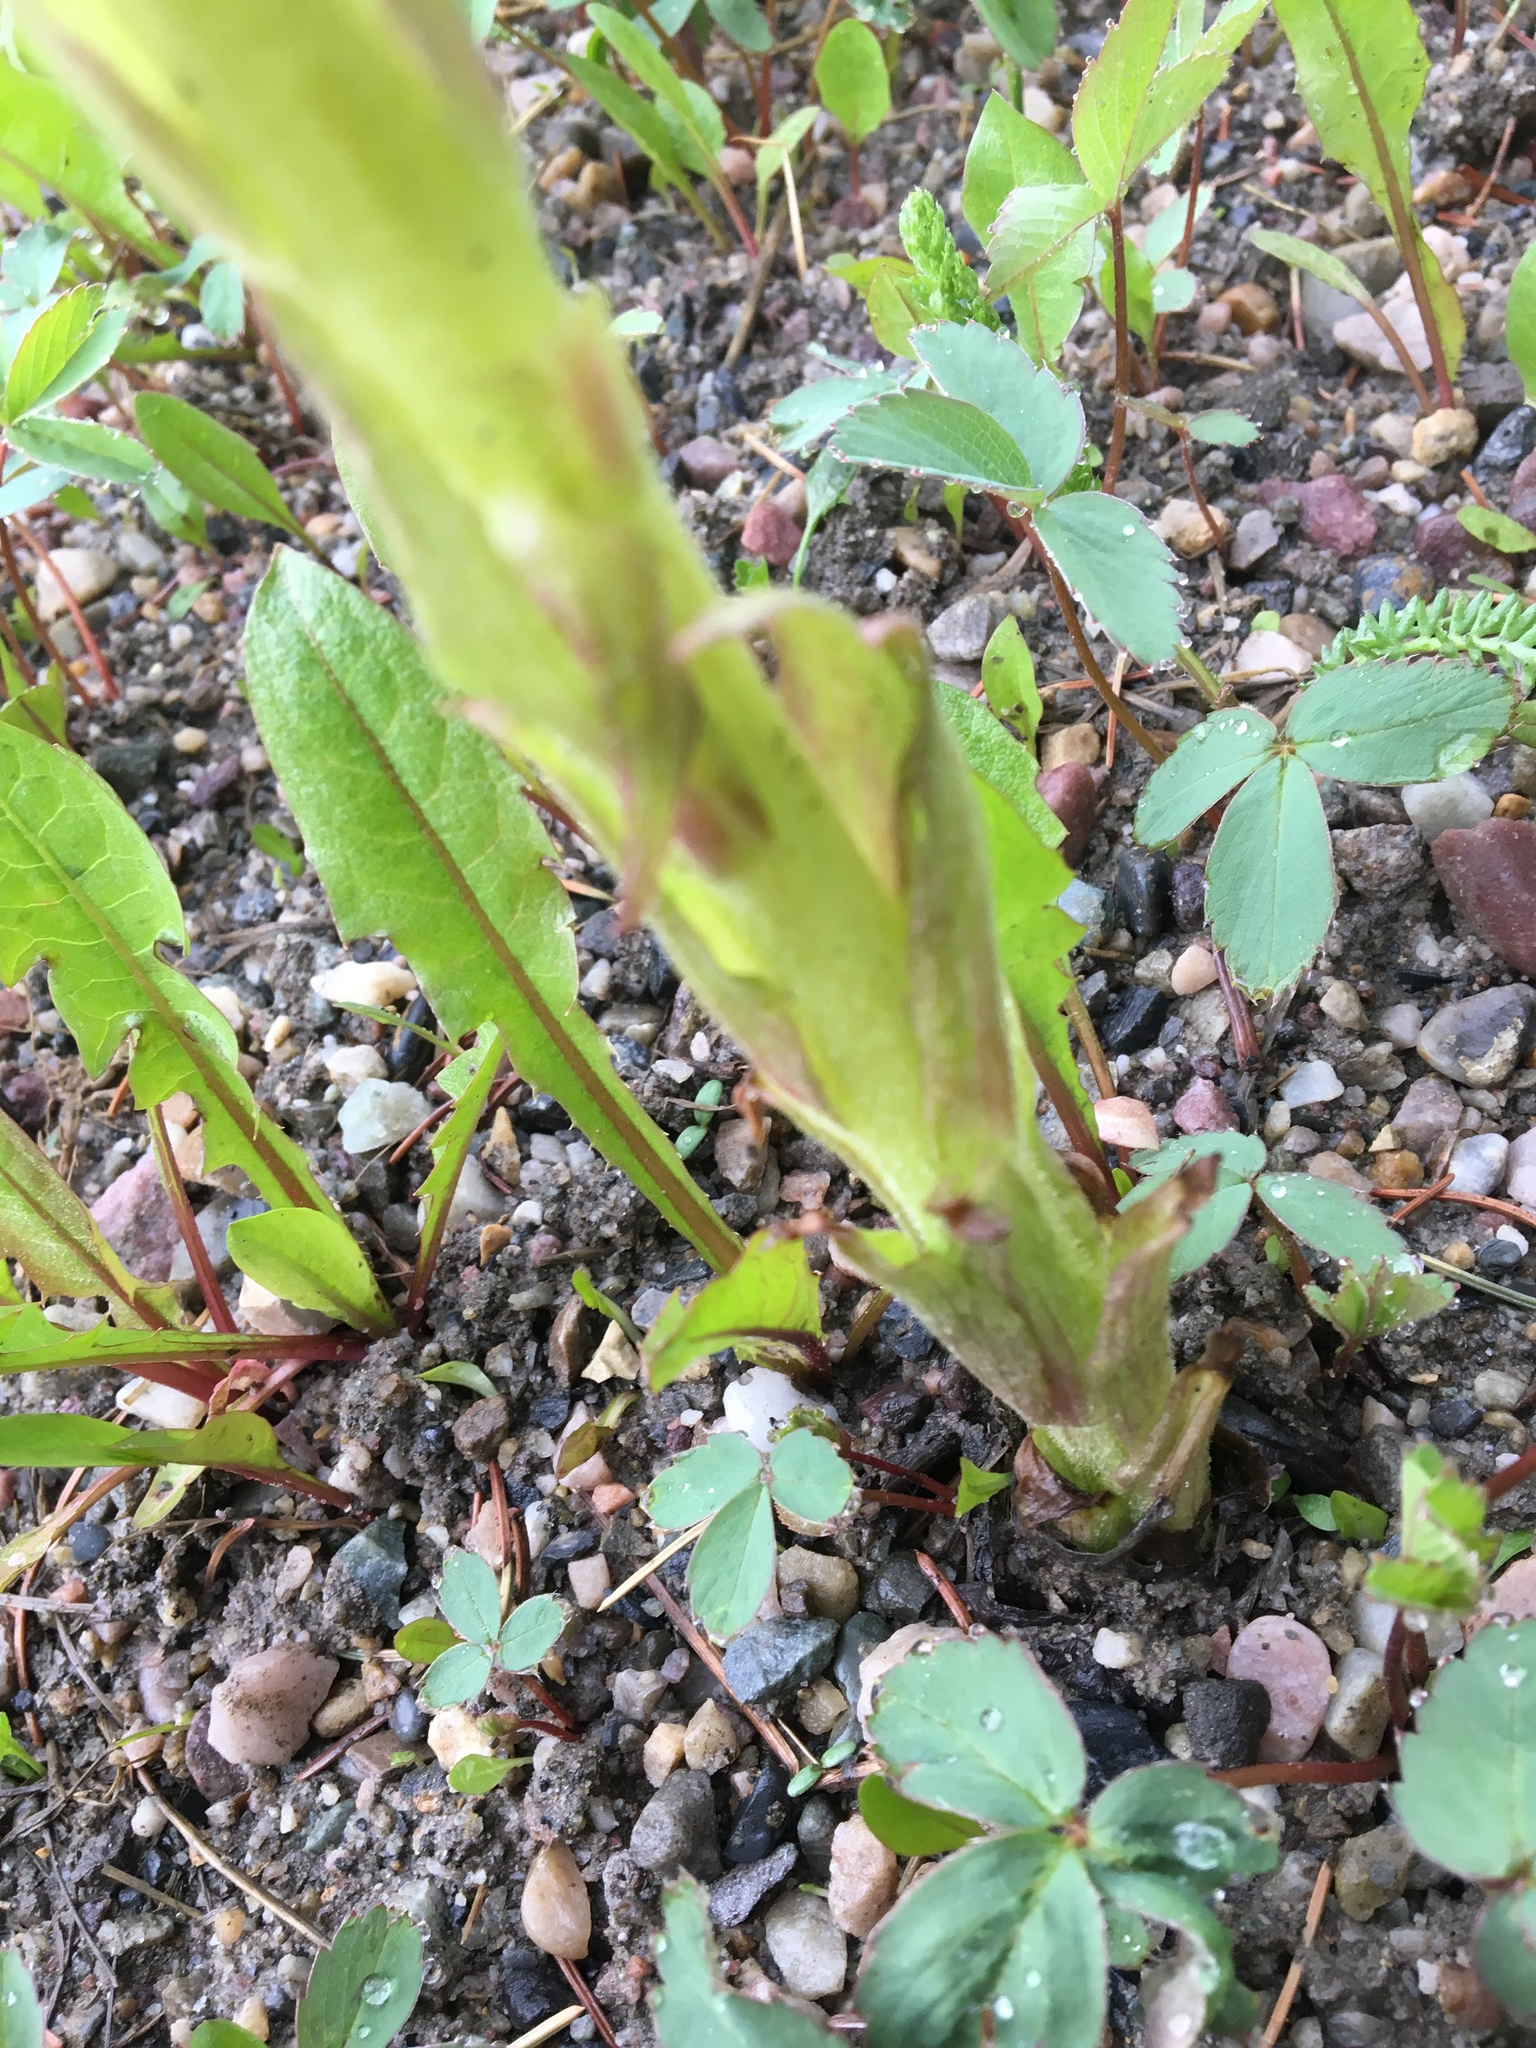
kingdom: Plantae
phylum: Tracheophyta
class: Magnoliopsida
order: Asterales
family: Asteraceae
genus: Petasites
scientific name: Petasites frigidus
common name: Arctic butterbur
